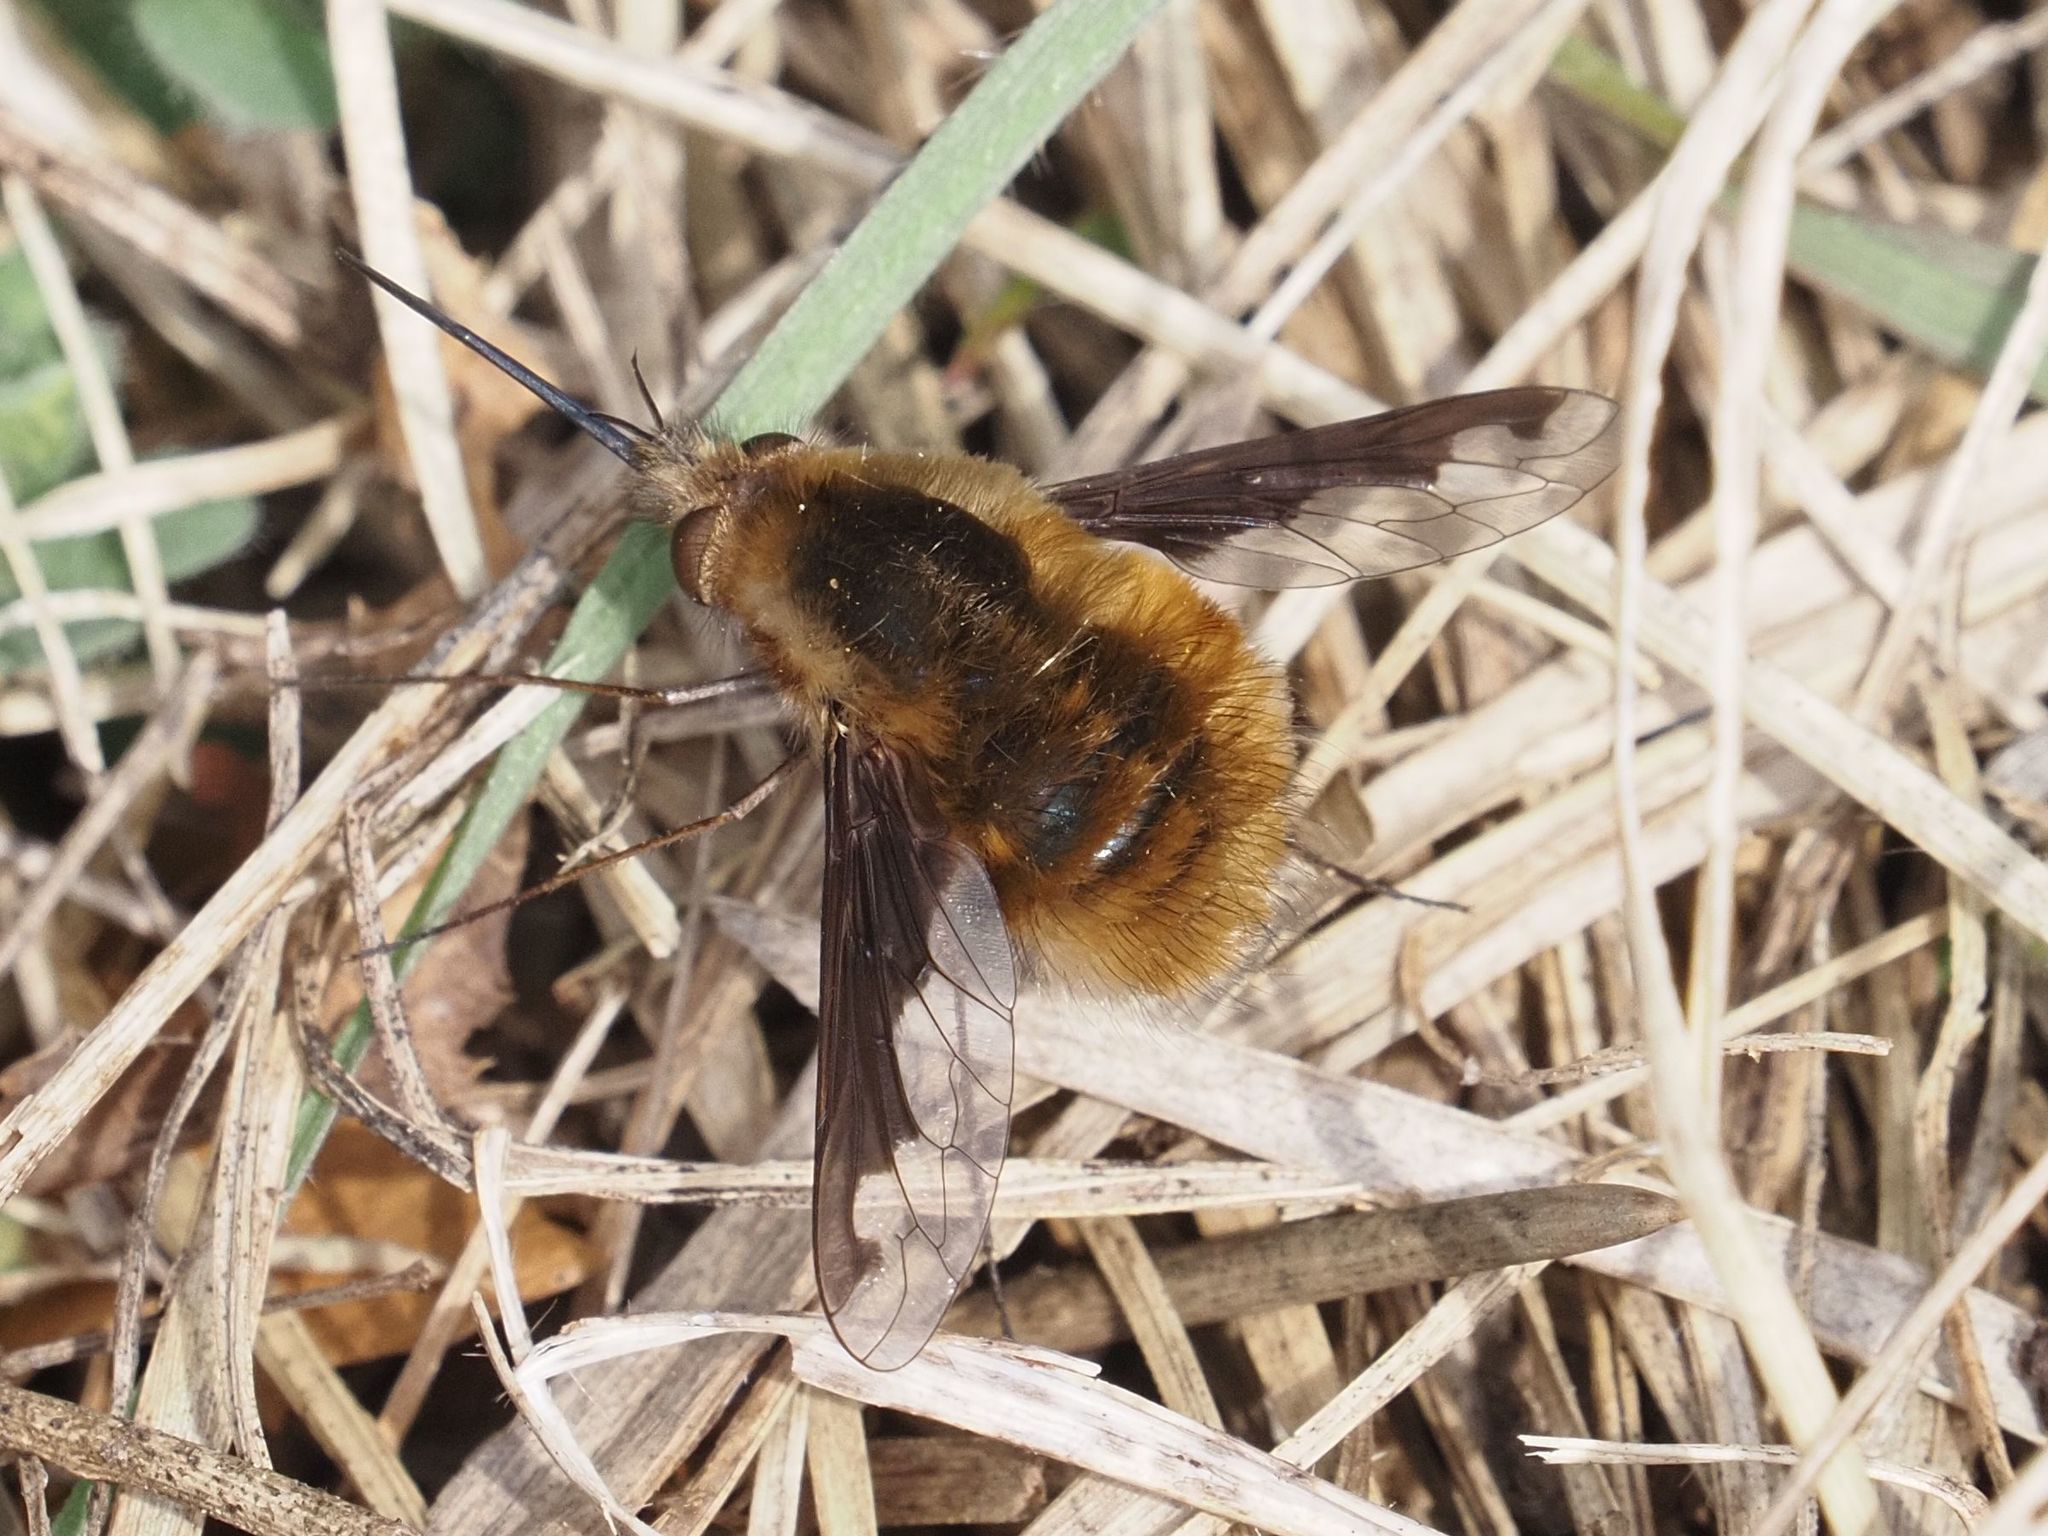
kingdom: Animalia
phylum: Arthropoda
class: Insecta
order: Diptera
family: Bombyliidae
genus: Bombylius
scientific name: Bombylius major
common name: Bee fly
